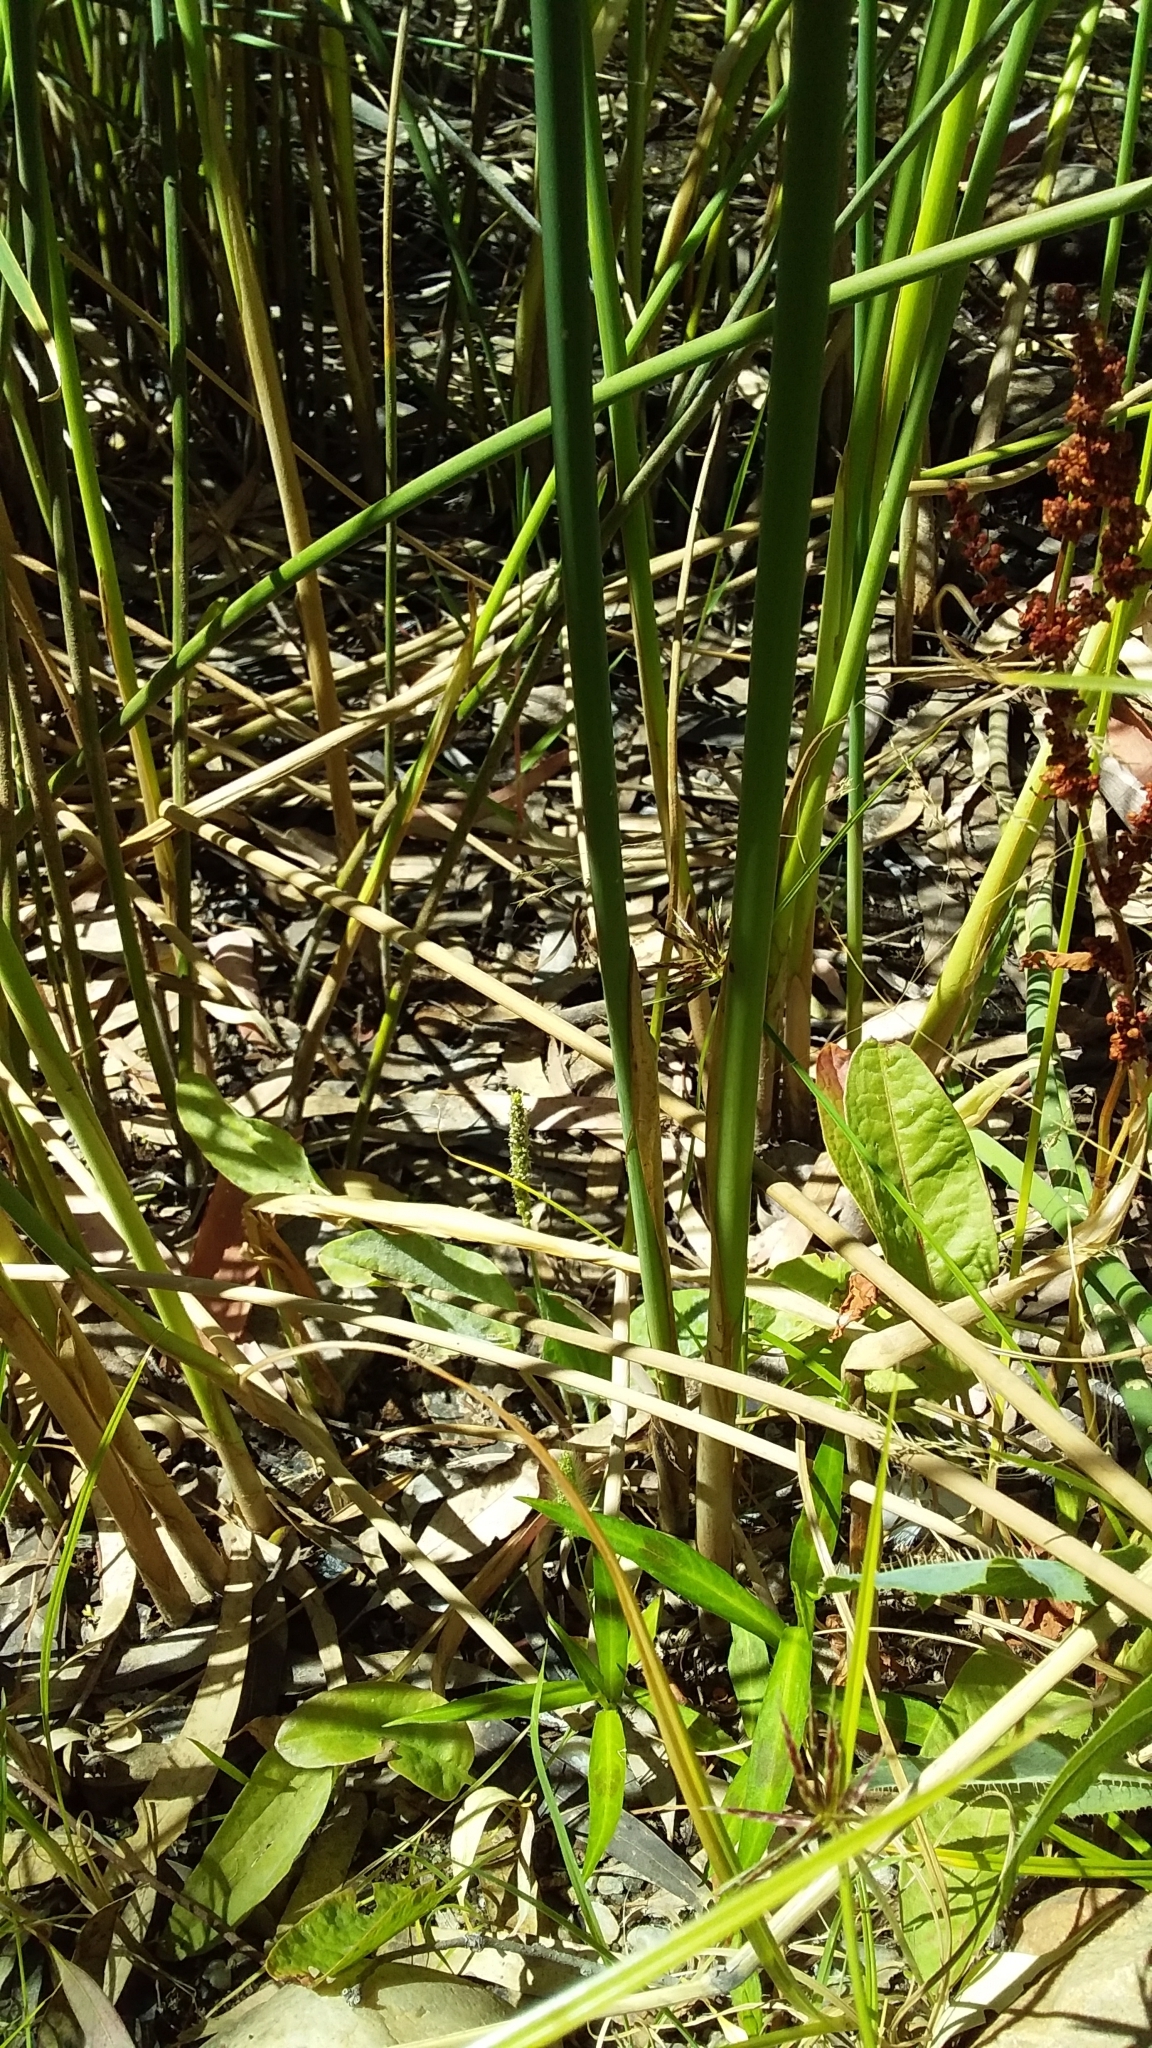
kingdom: Plantae
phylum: Tracheophyta
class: Liliopsida
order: Poales
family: Cyperaceae
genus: Schoenoplectus
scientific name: Schoenoplectus subulatus
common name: Coast club-rush
